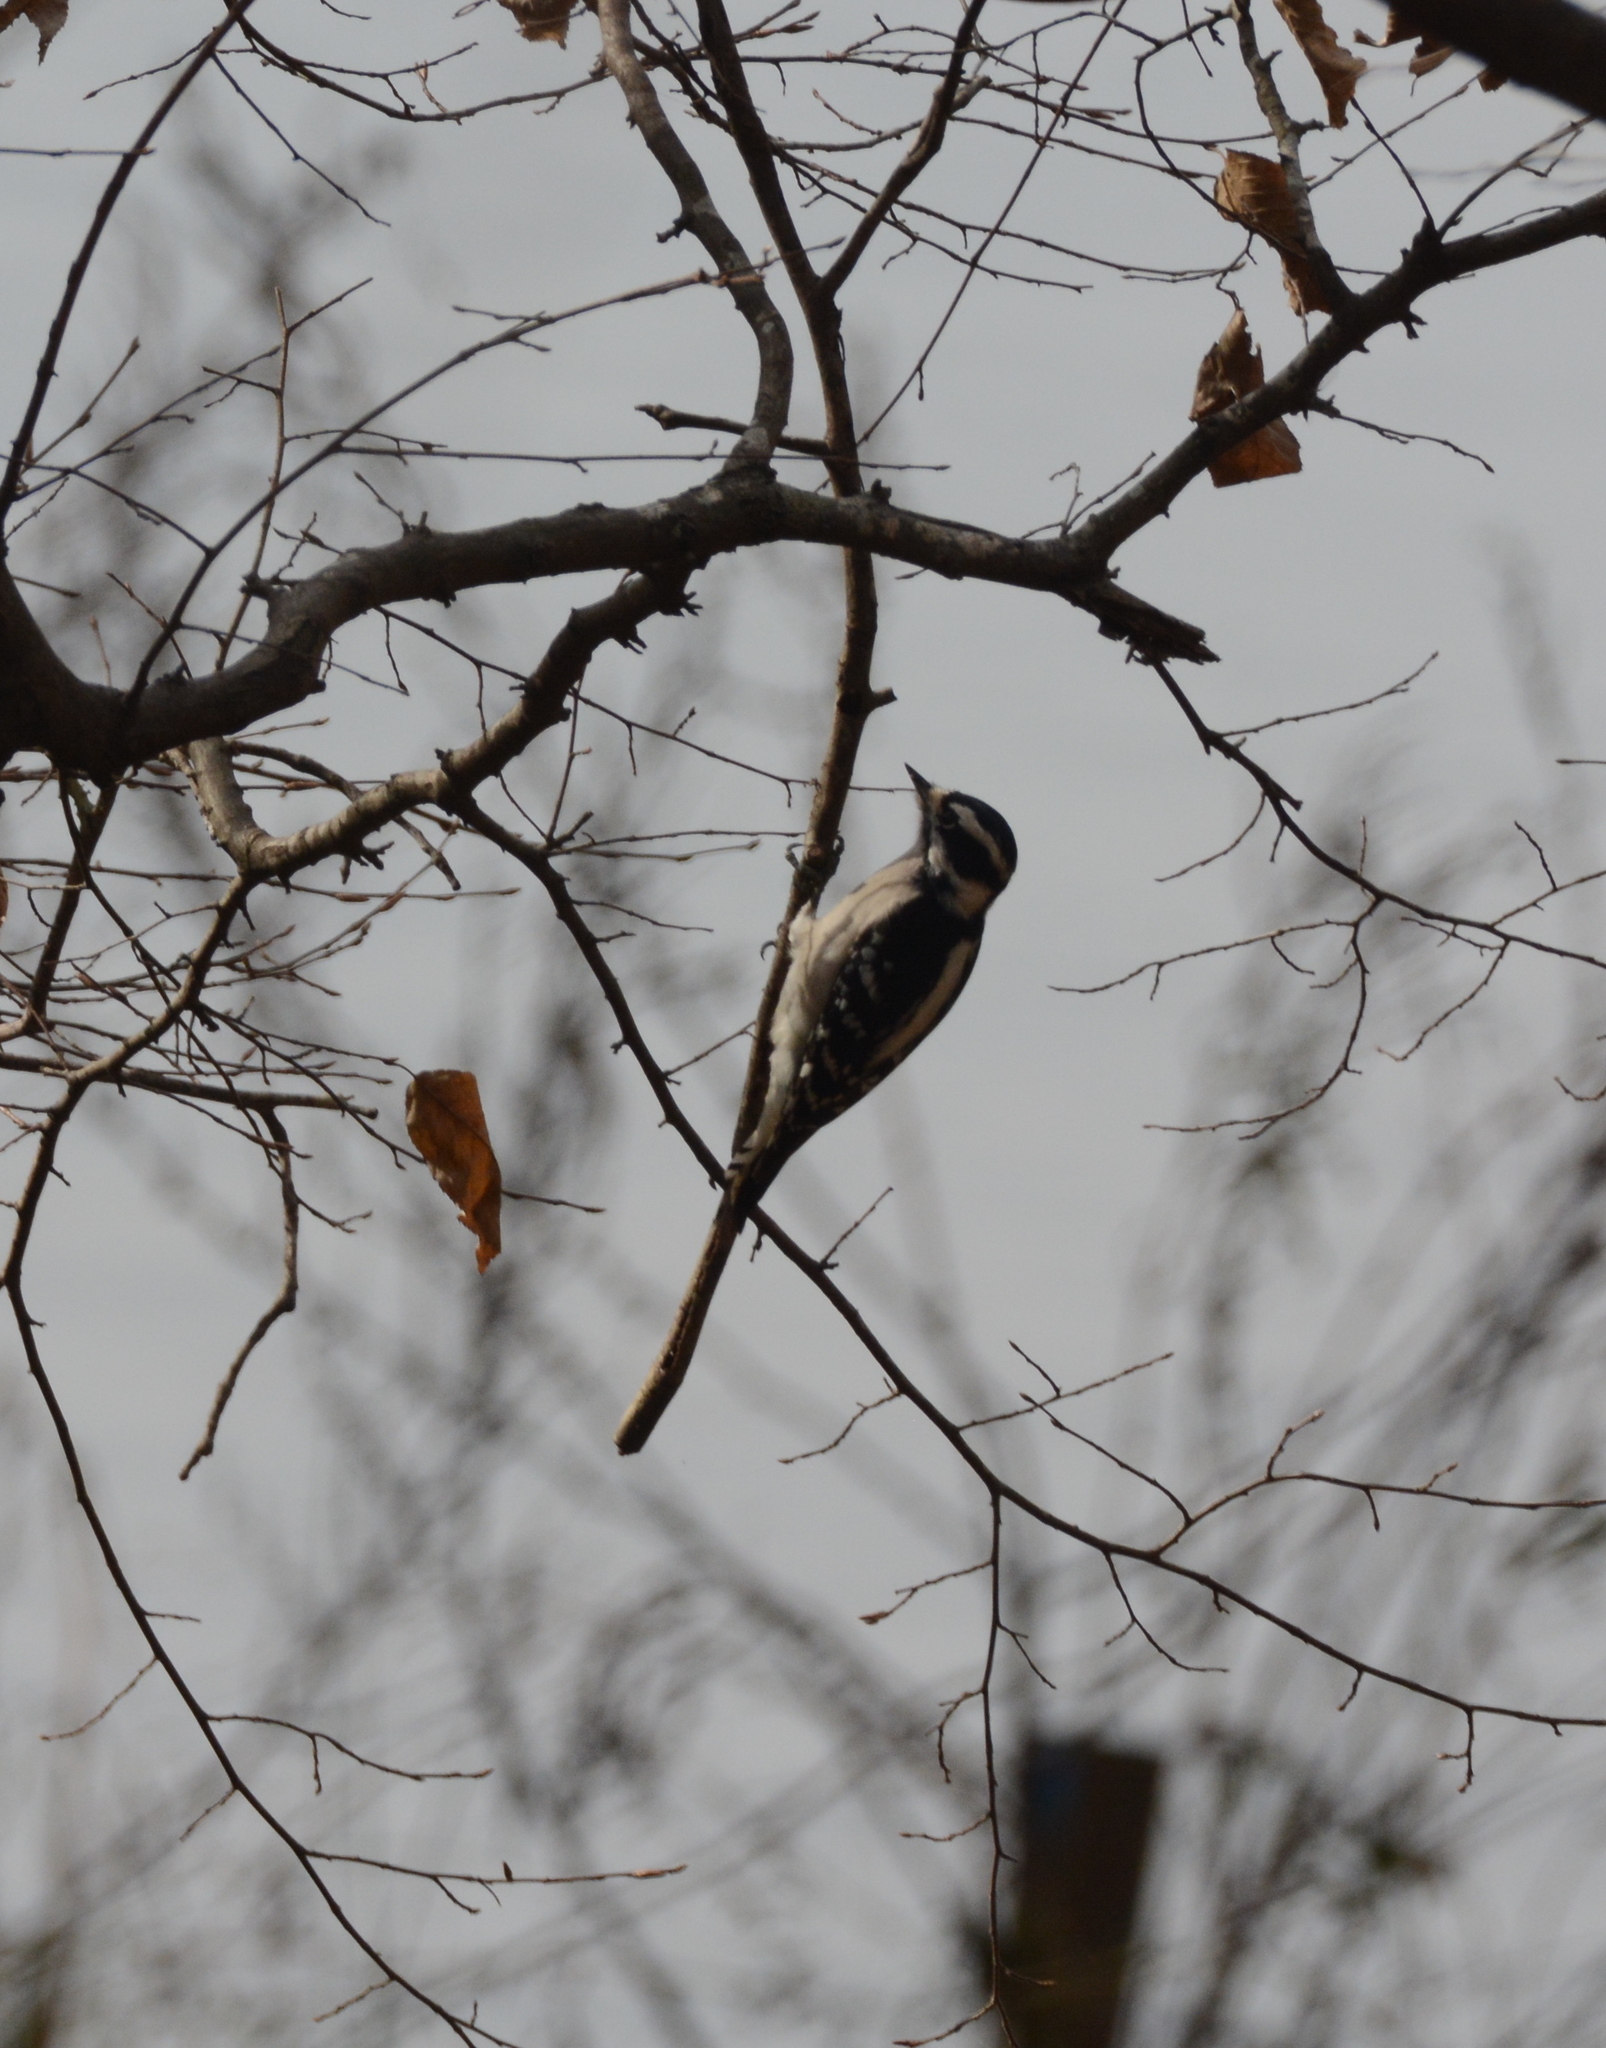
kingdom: Animalia
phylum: Chordata
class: Aves
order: Piciformes
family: Picidae
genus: Dryobates
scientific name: Dryobates pubescens
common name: Downy woodpecker
